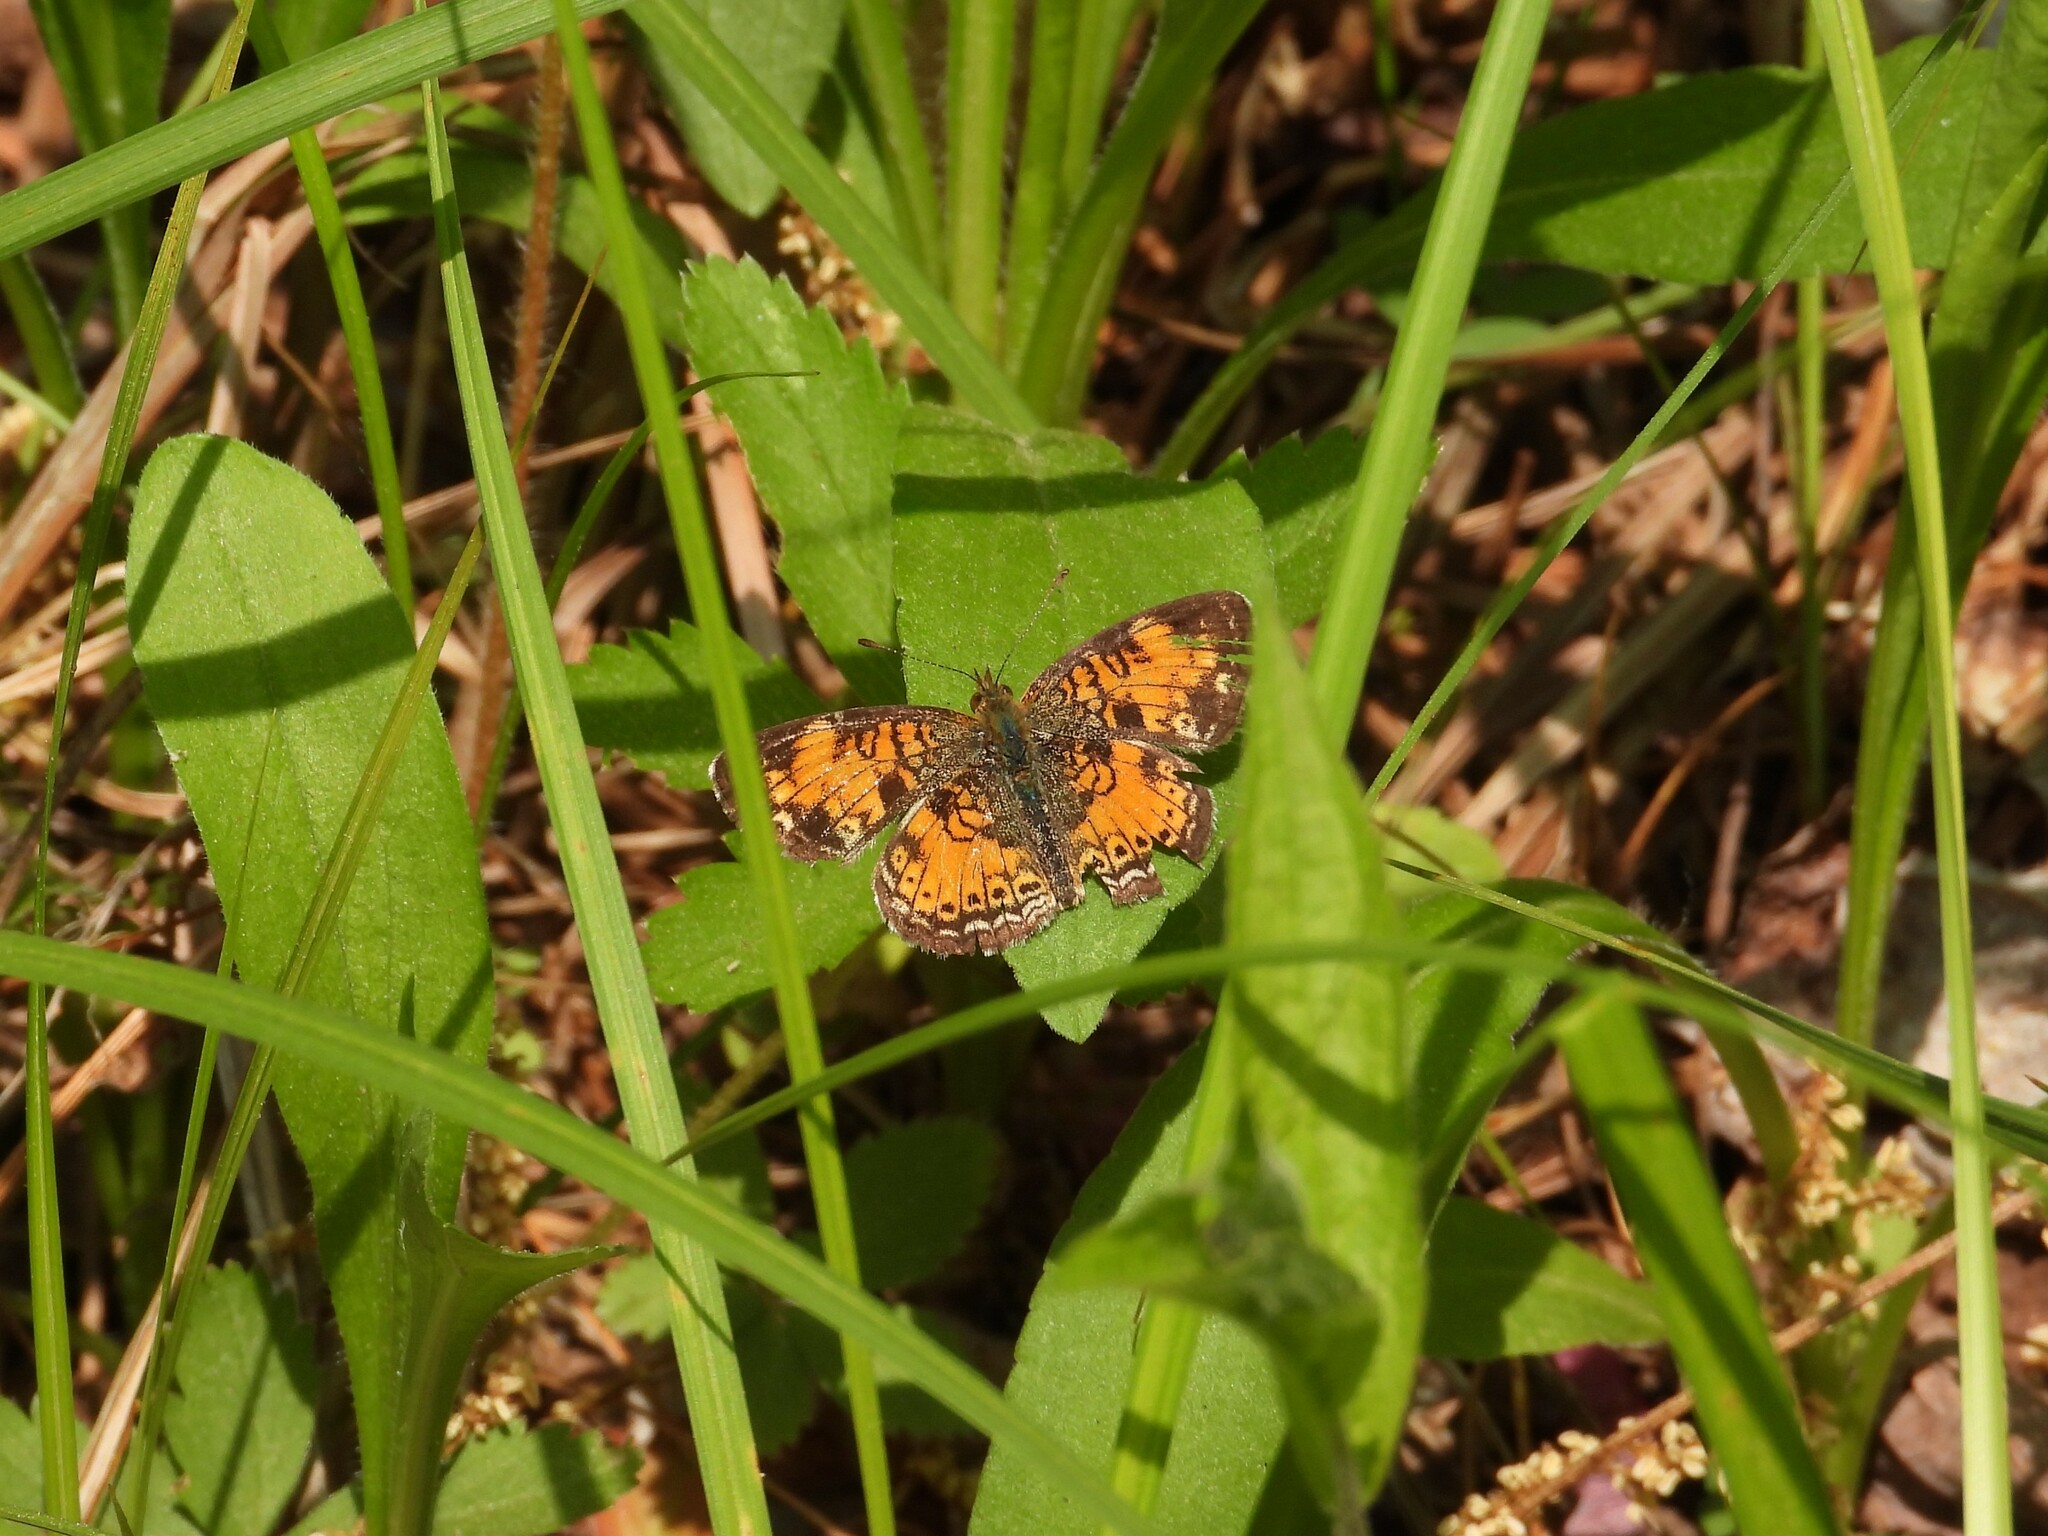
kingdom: Animalia
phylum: Arthropoda
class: Insecta
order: Lepidoptera
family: Nymphalidae
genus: Phyciodes
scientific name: Phyciodes tharos
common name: Pearl crescent
